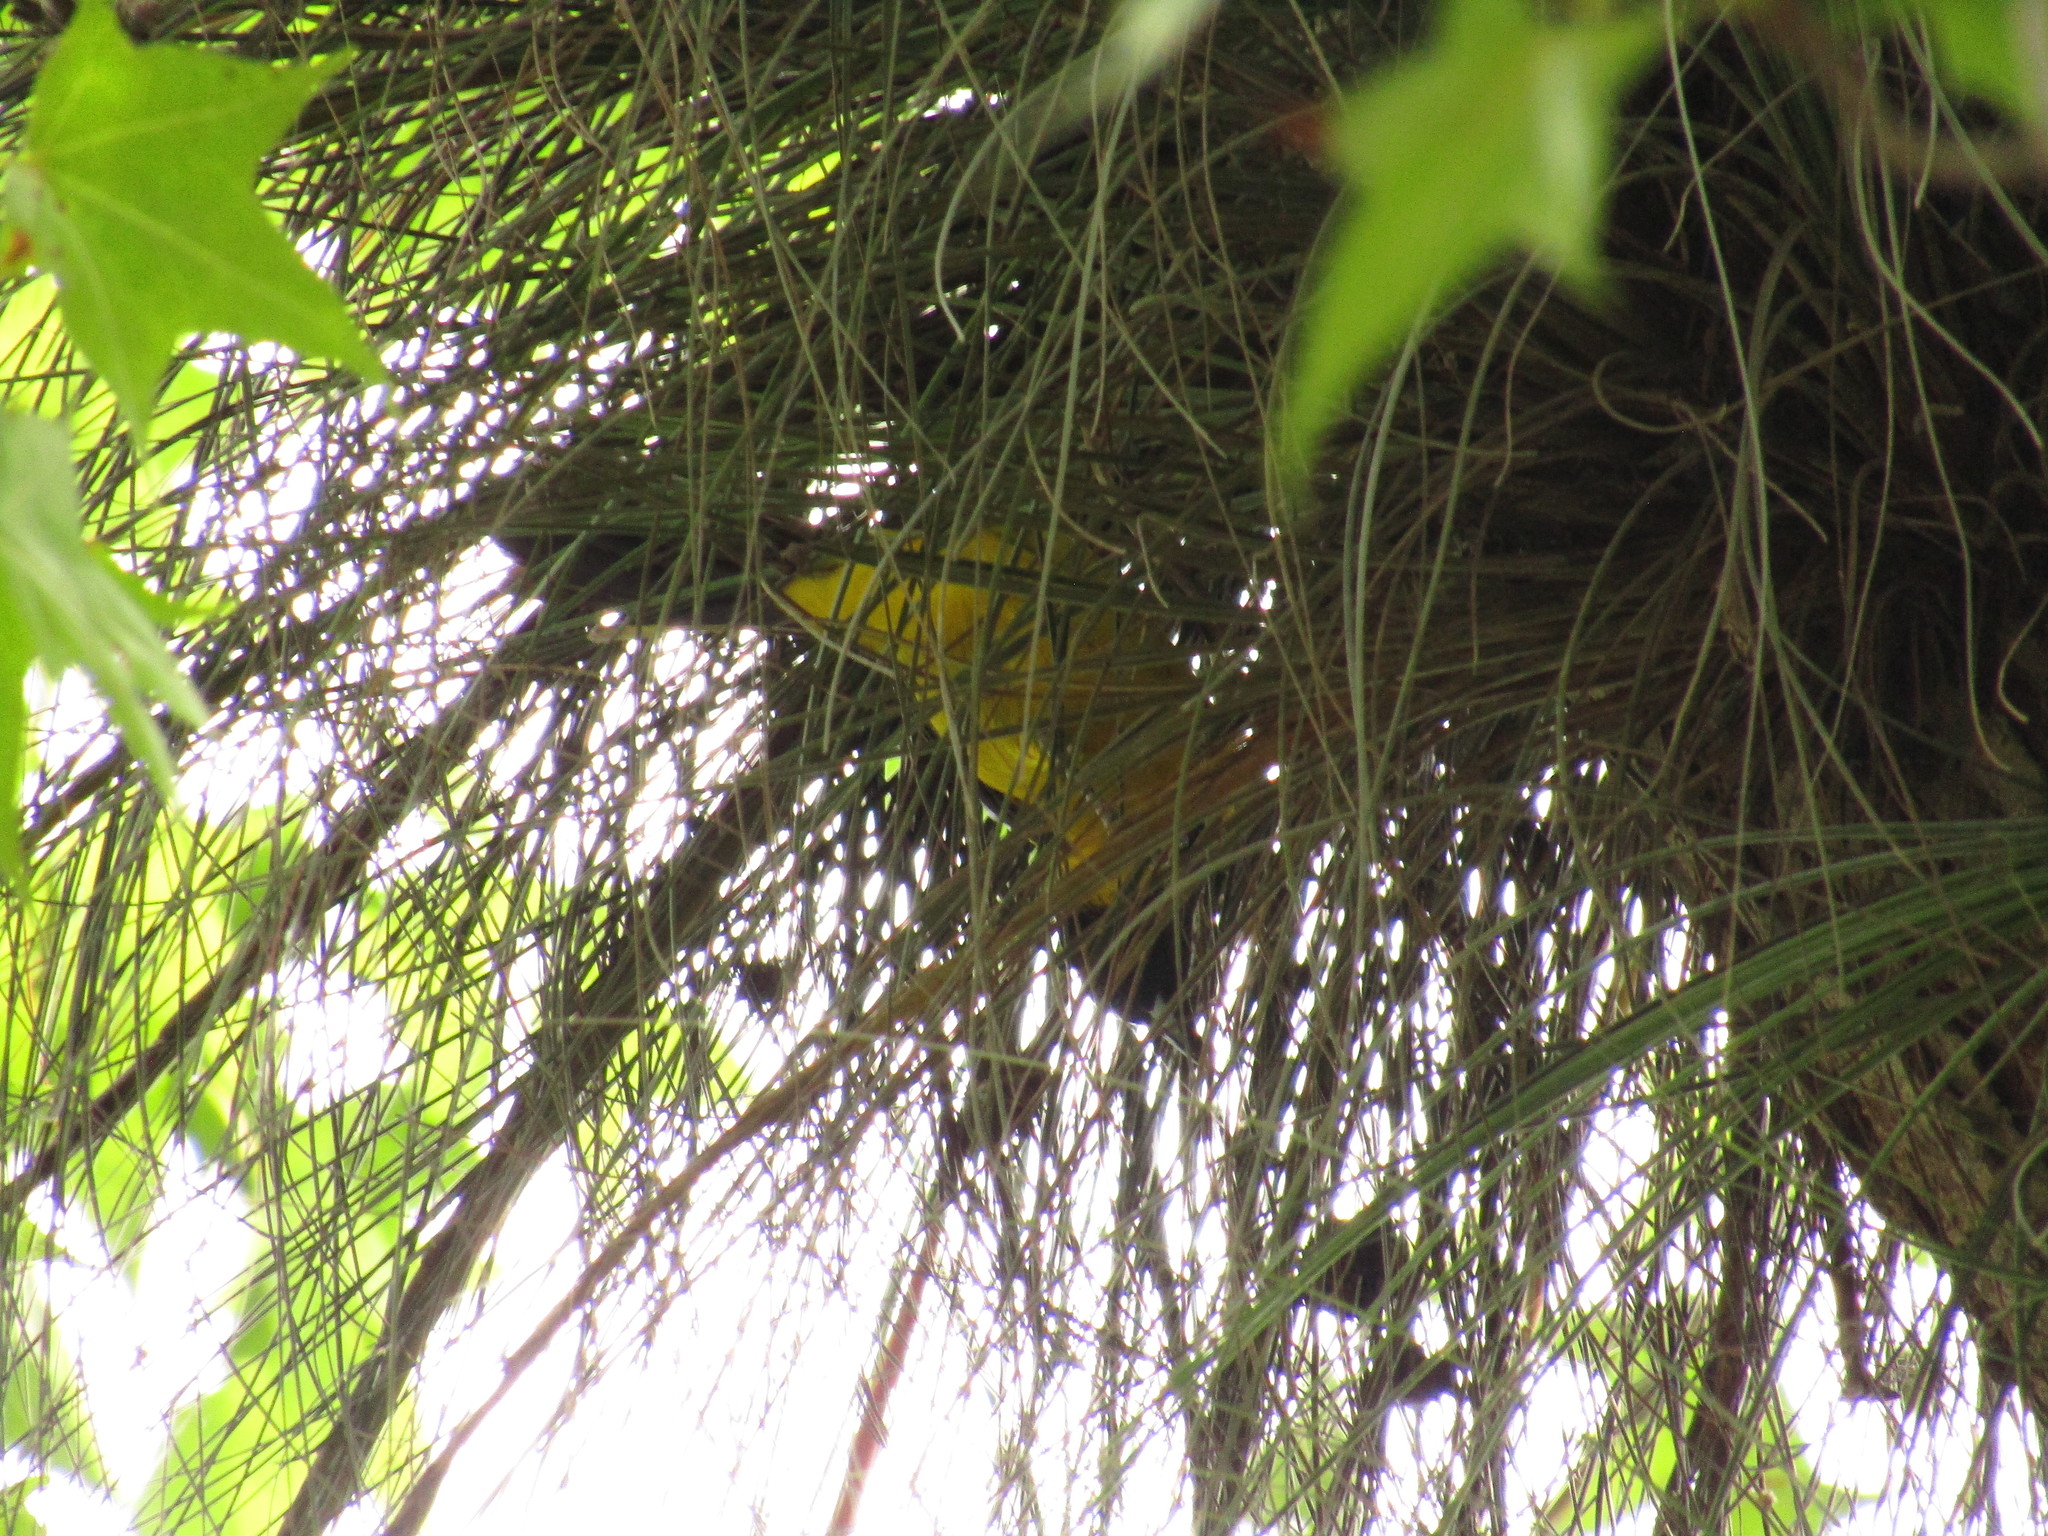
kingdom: Animalia
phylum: Chordata
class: Aves
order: Passeriformes
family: Icteridae
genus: Icterus
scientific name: Icterus graduacauda
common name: Audubon's oriole
